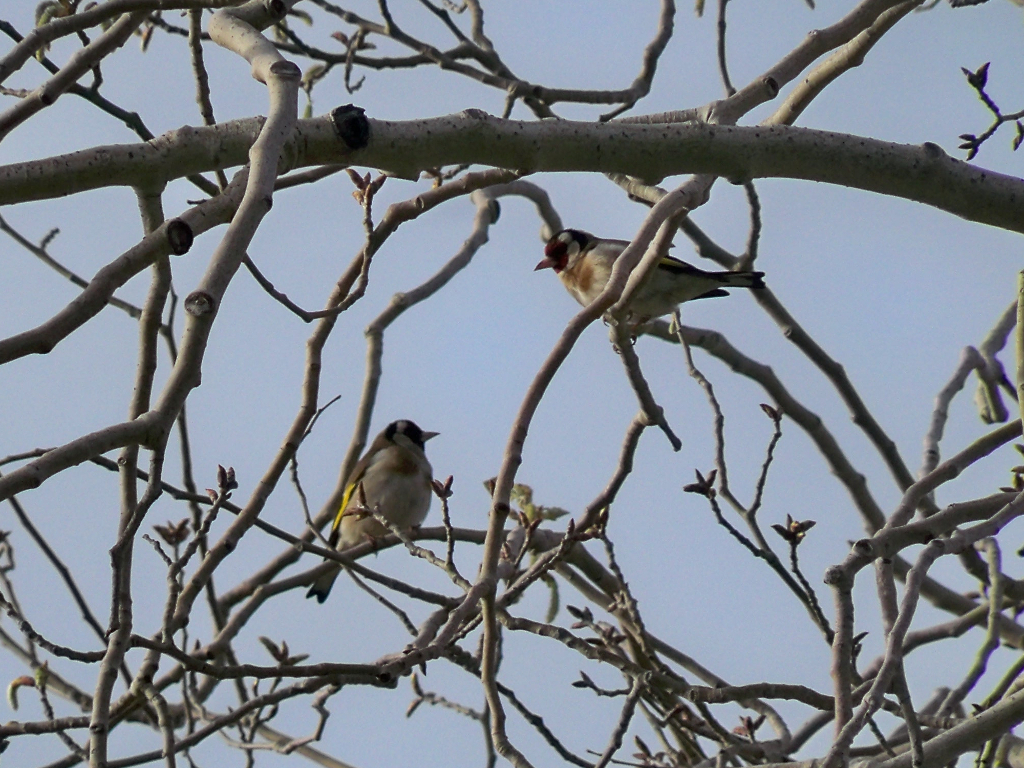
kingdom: Animalia
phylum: Chordata
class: Aves
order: Passeriformes
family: Fringillidae
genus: Carduelis
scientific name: Carduelis carduelis
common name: European goldfinch
